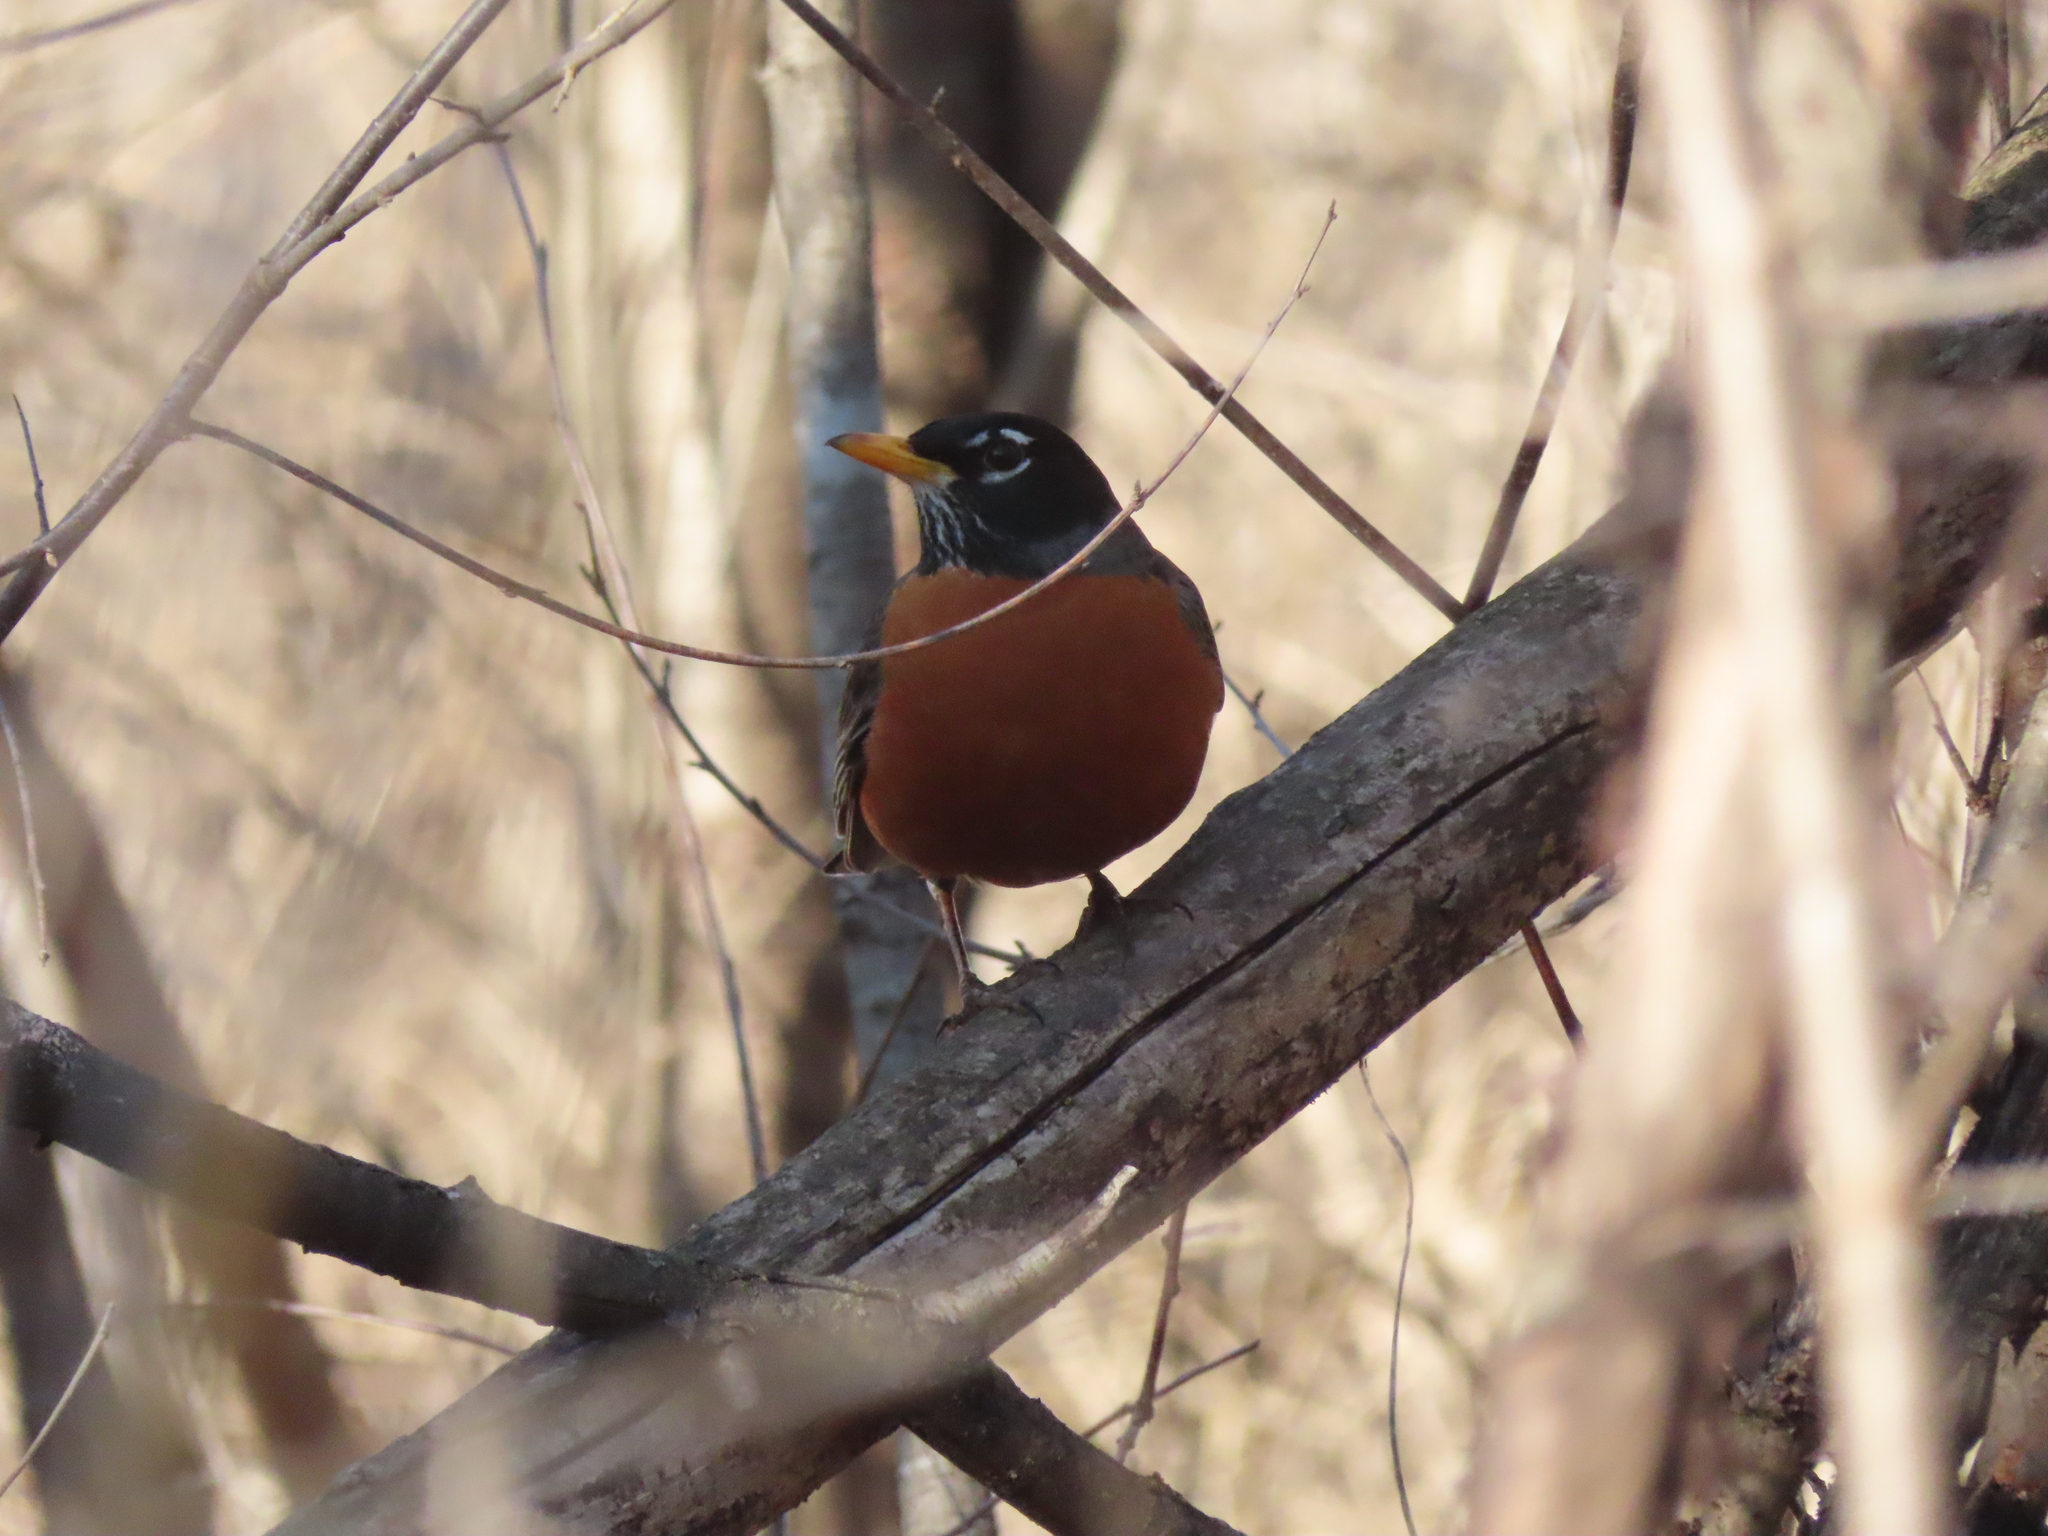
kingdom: Animalia
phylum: Chordata
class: Aves
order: Passeriformes
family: Turdidae
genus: Turdus
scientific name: Turdus migratorius
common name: American robin
